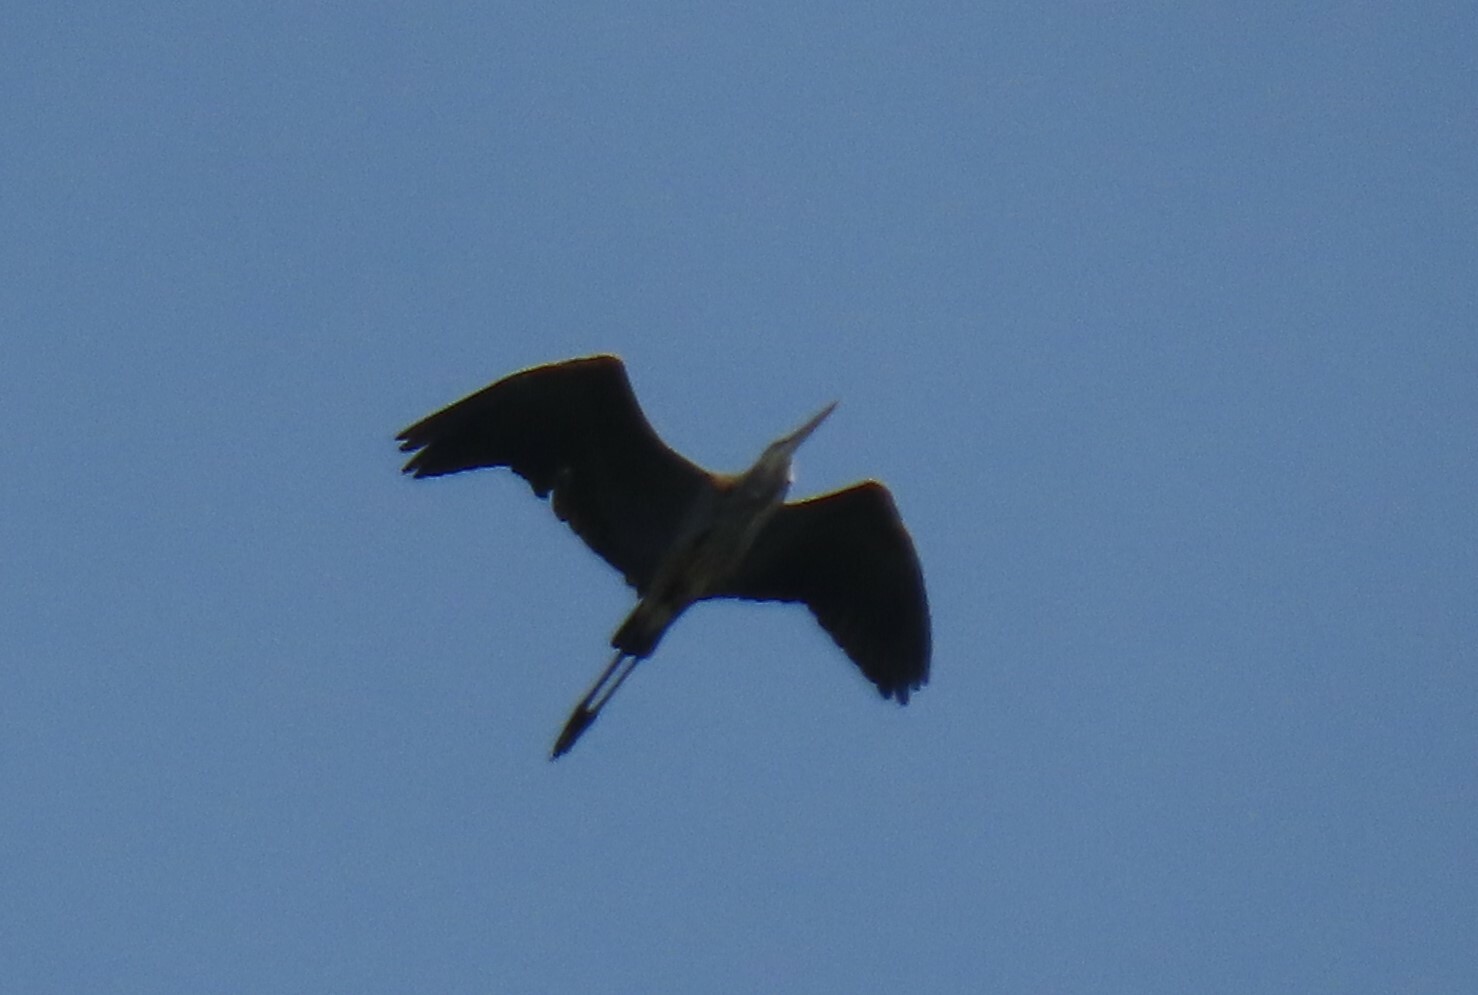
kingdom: Animalia
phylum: Chordata
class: Aves
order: Pelecaniformes
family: Ardeidae
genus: Ardea
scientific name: Ardea herodias
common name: Great blue heron
